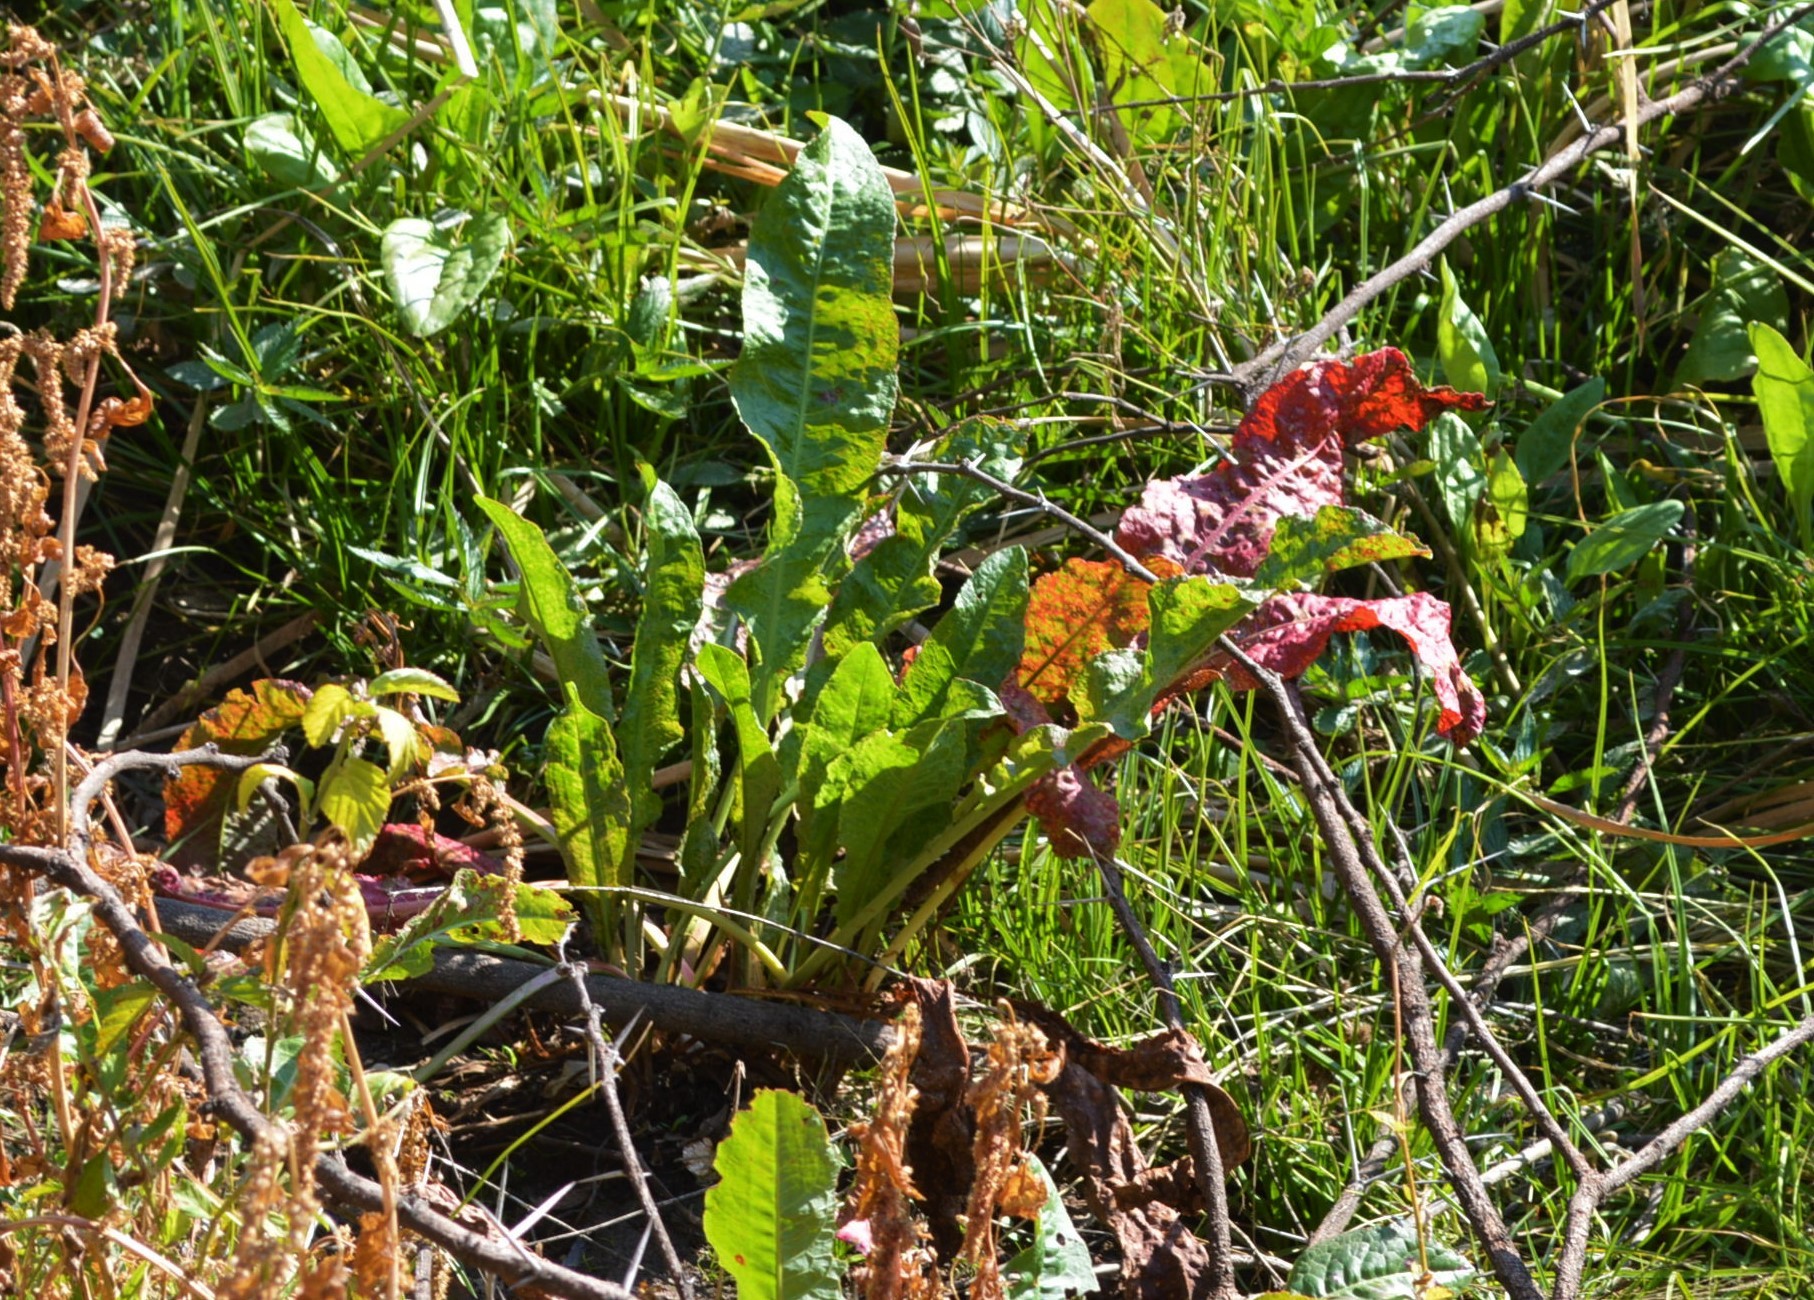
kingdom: Plantae
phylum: Tracheophyta
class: Magnoliopsida
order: Caryophyllales
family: Polygonaceae
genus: Rumex
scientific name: Rumex crispus
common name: Curled dock
